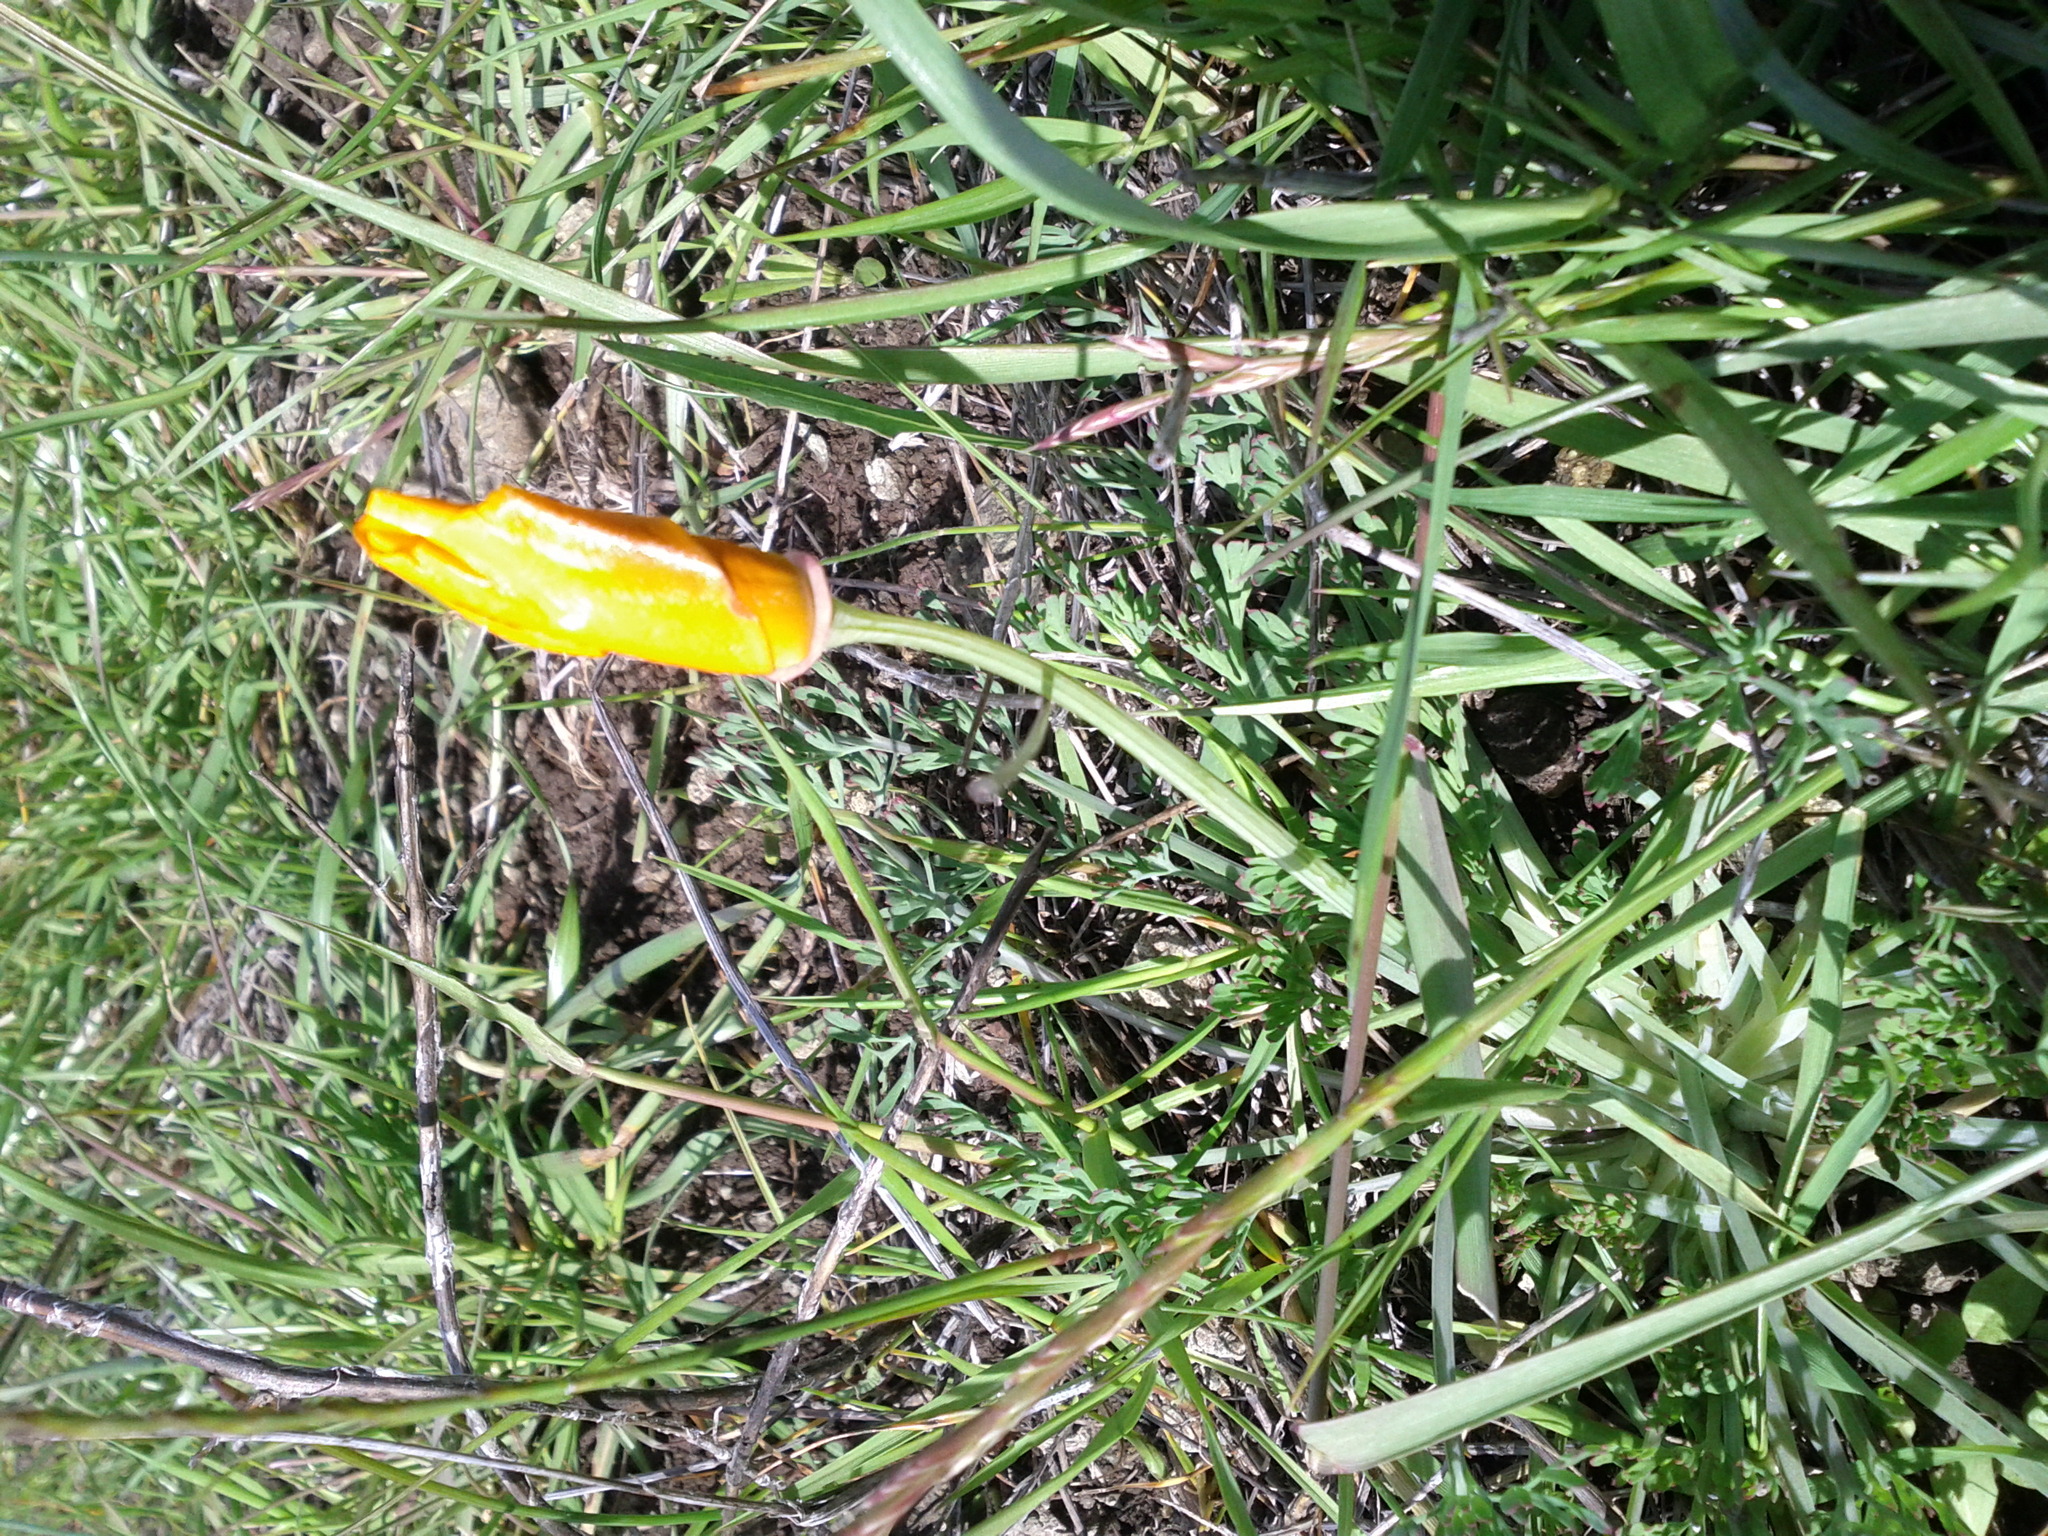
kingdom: Plantae
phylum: Tracheophyta
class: Magnoliopsida
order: Ranunculales
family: Papaveraceae
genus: Eschscholzia
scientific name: Eschscholzia californica
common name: California poppy
